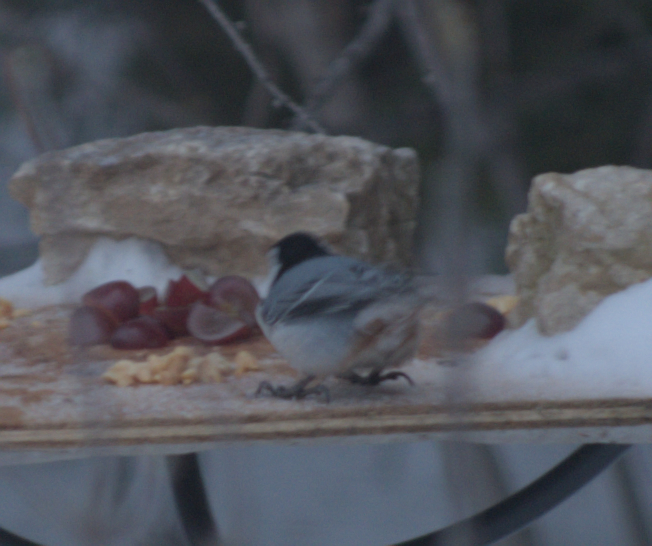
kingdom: Animalia
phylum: Chordata
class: Aves
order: Passeriformes
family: Sittidae
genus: Sitta
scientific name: Sitta carolinensis
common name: White-breasted nuthatch
